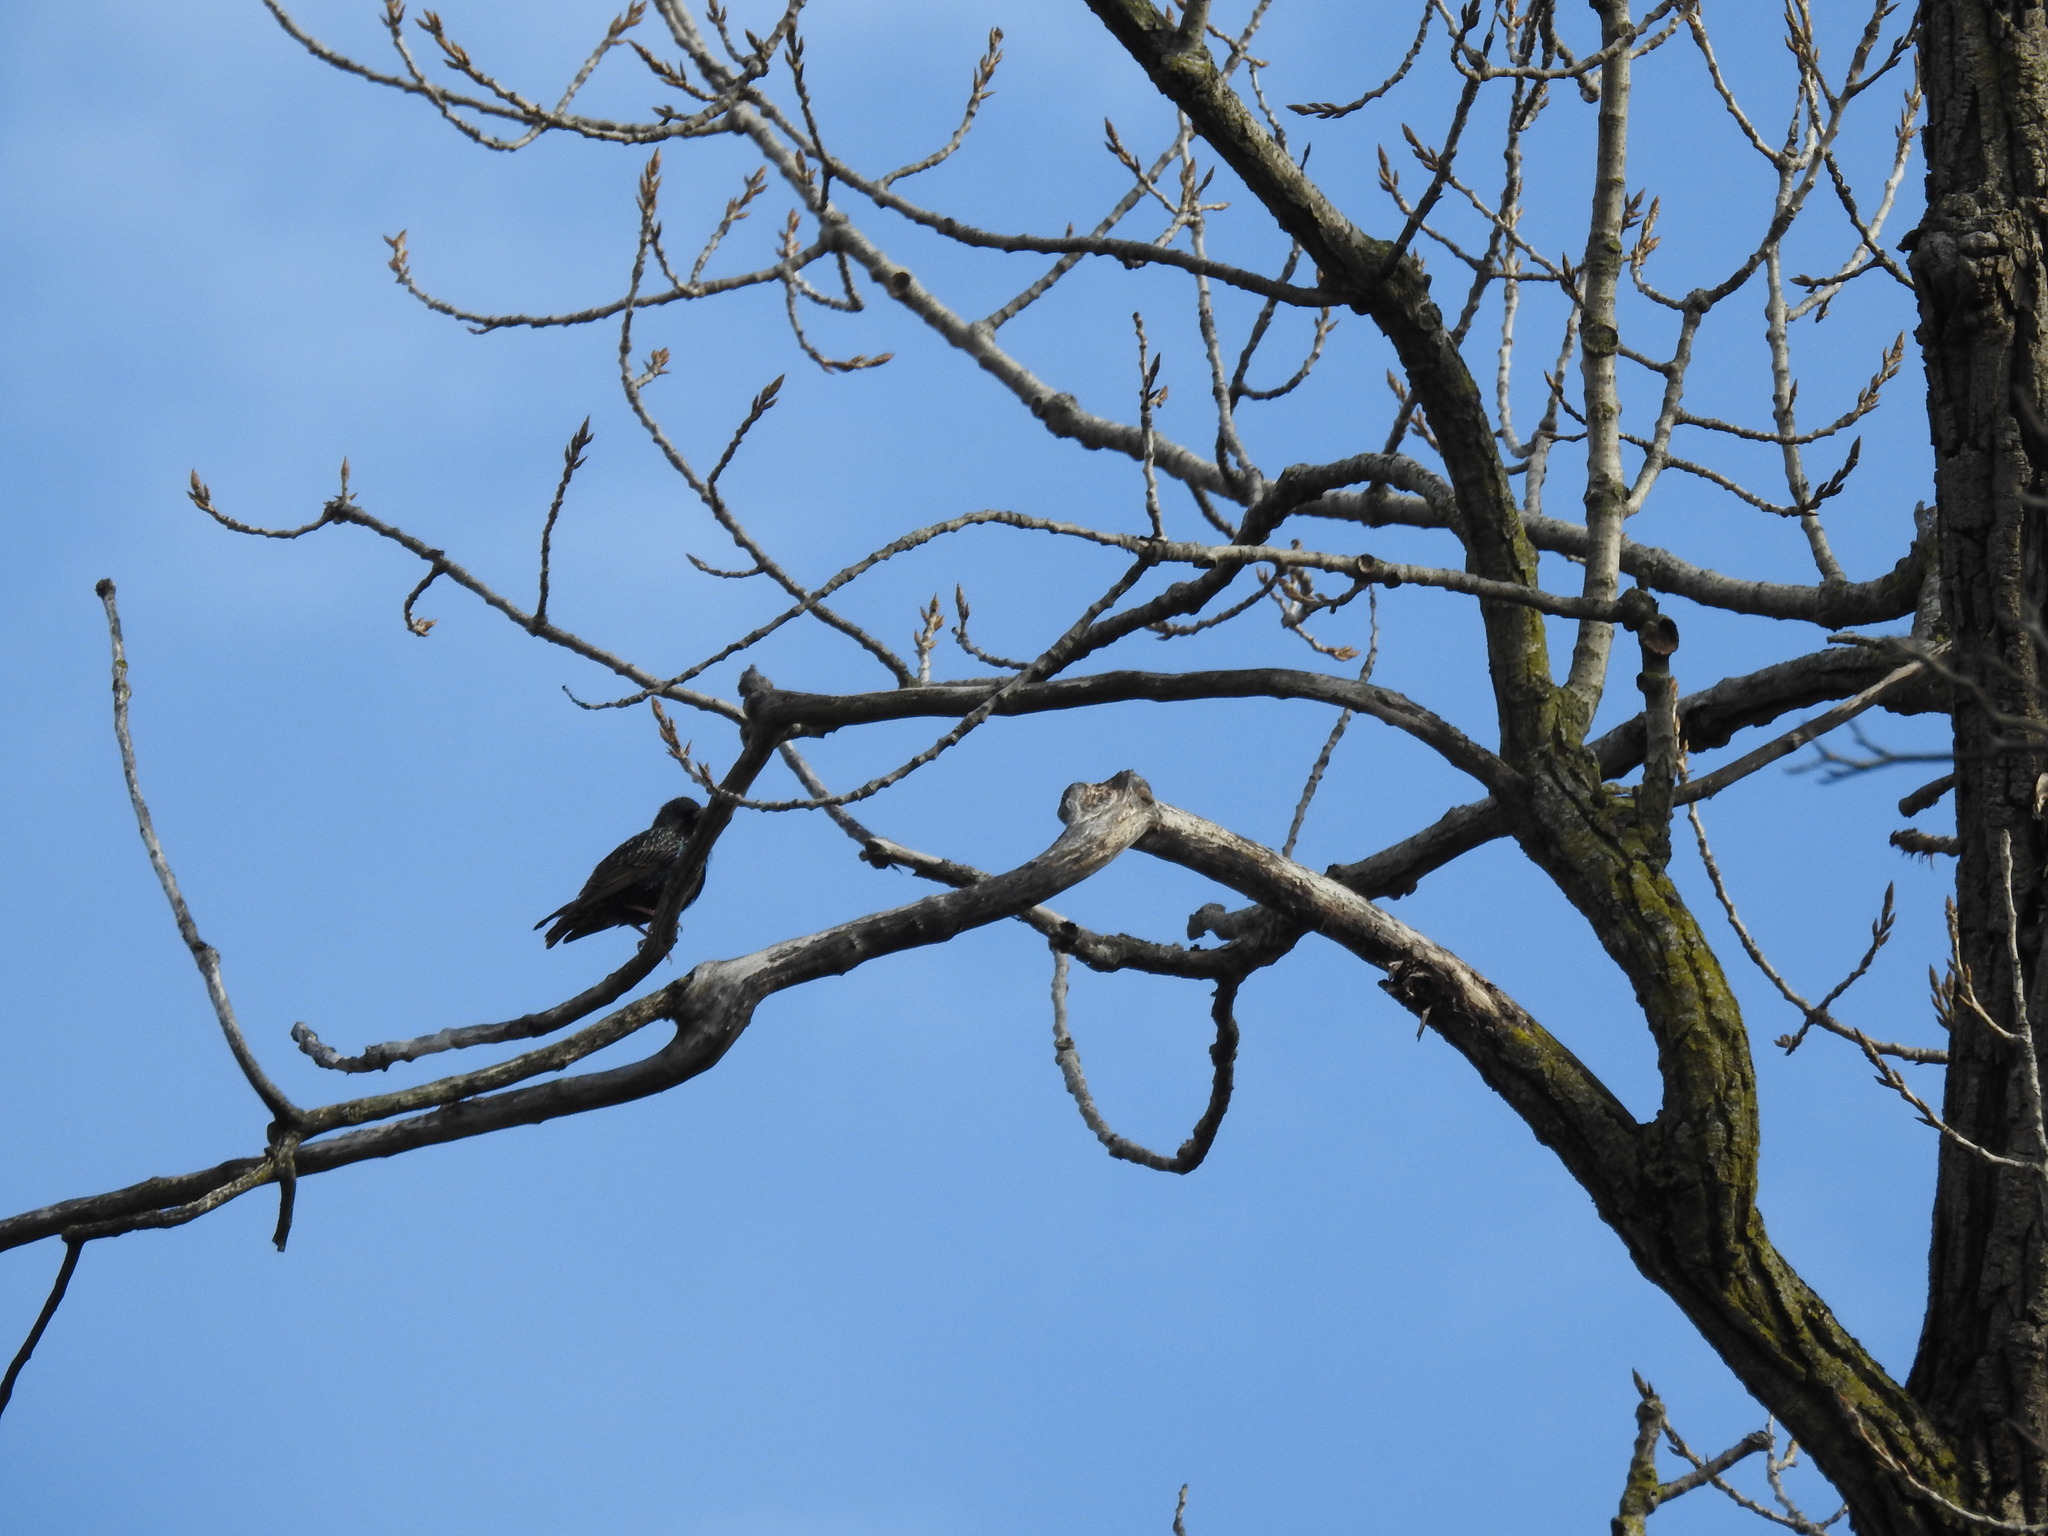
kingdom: Animalia
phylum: Chordata
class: Aves
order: Passeriformes
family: Sturnidae
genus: Sturnus
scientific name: Sturnus vulgaris
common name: Common starling
